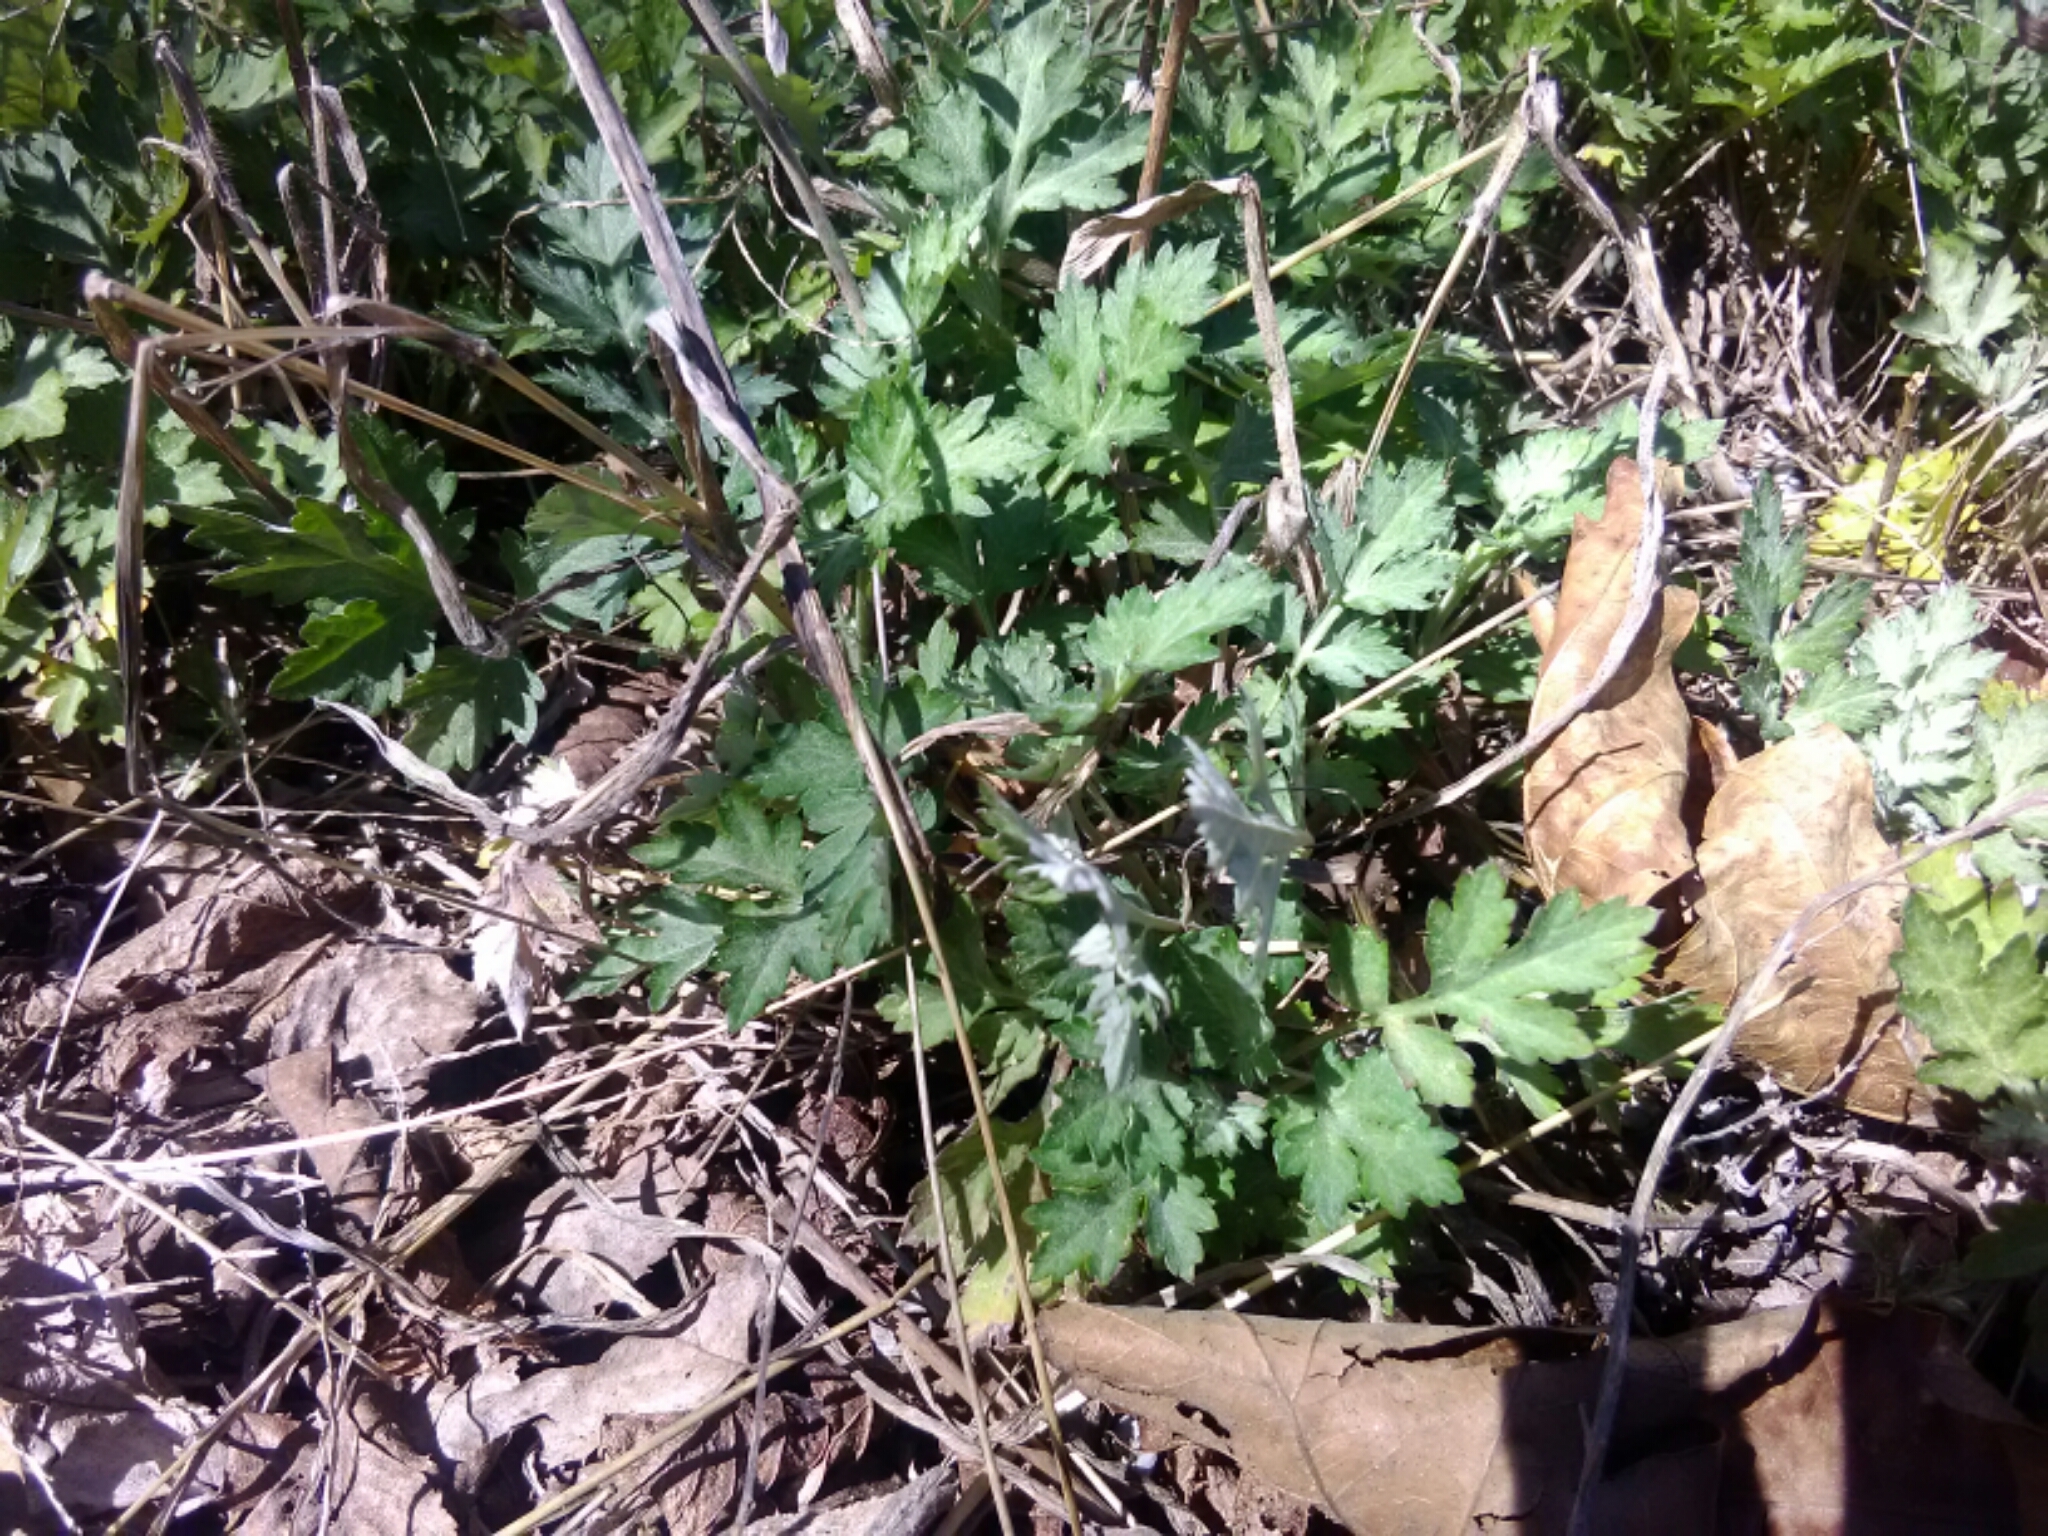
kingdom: Plantae
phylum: Tracheophyta
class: Magnoliopsida
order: Asterales
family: Asteraceae
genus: Artemisia
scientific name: Artemisia vulgaris
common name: Mugwort
